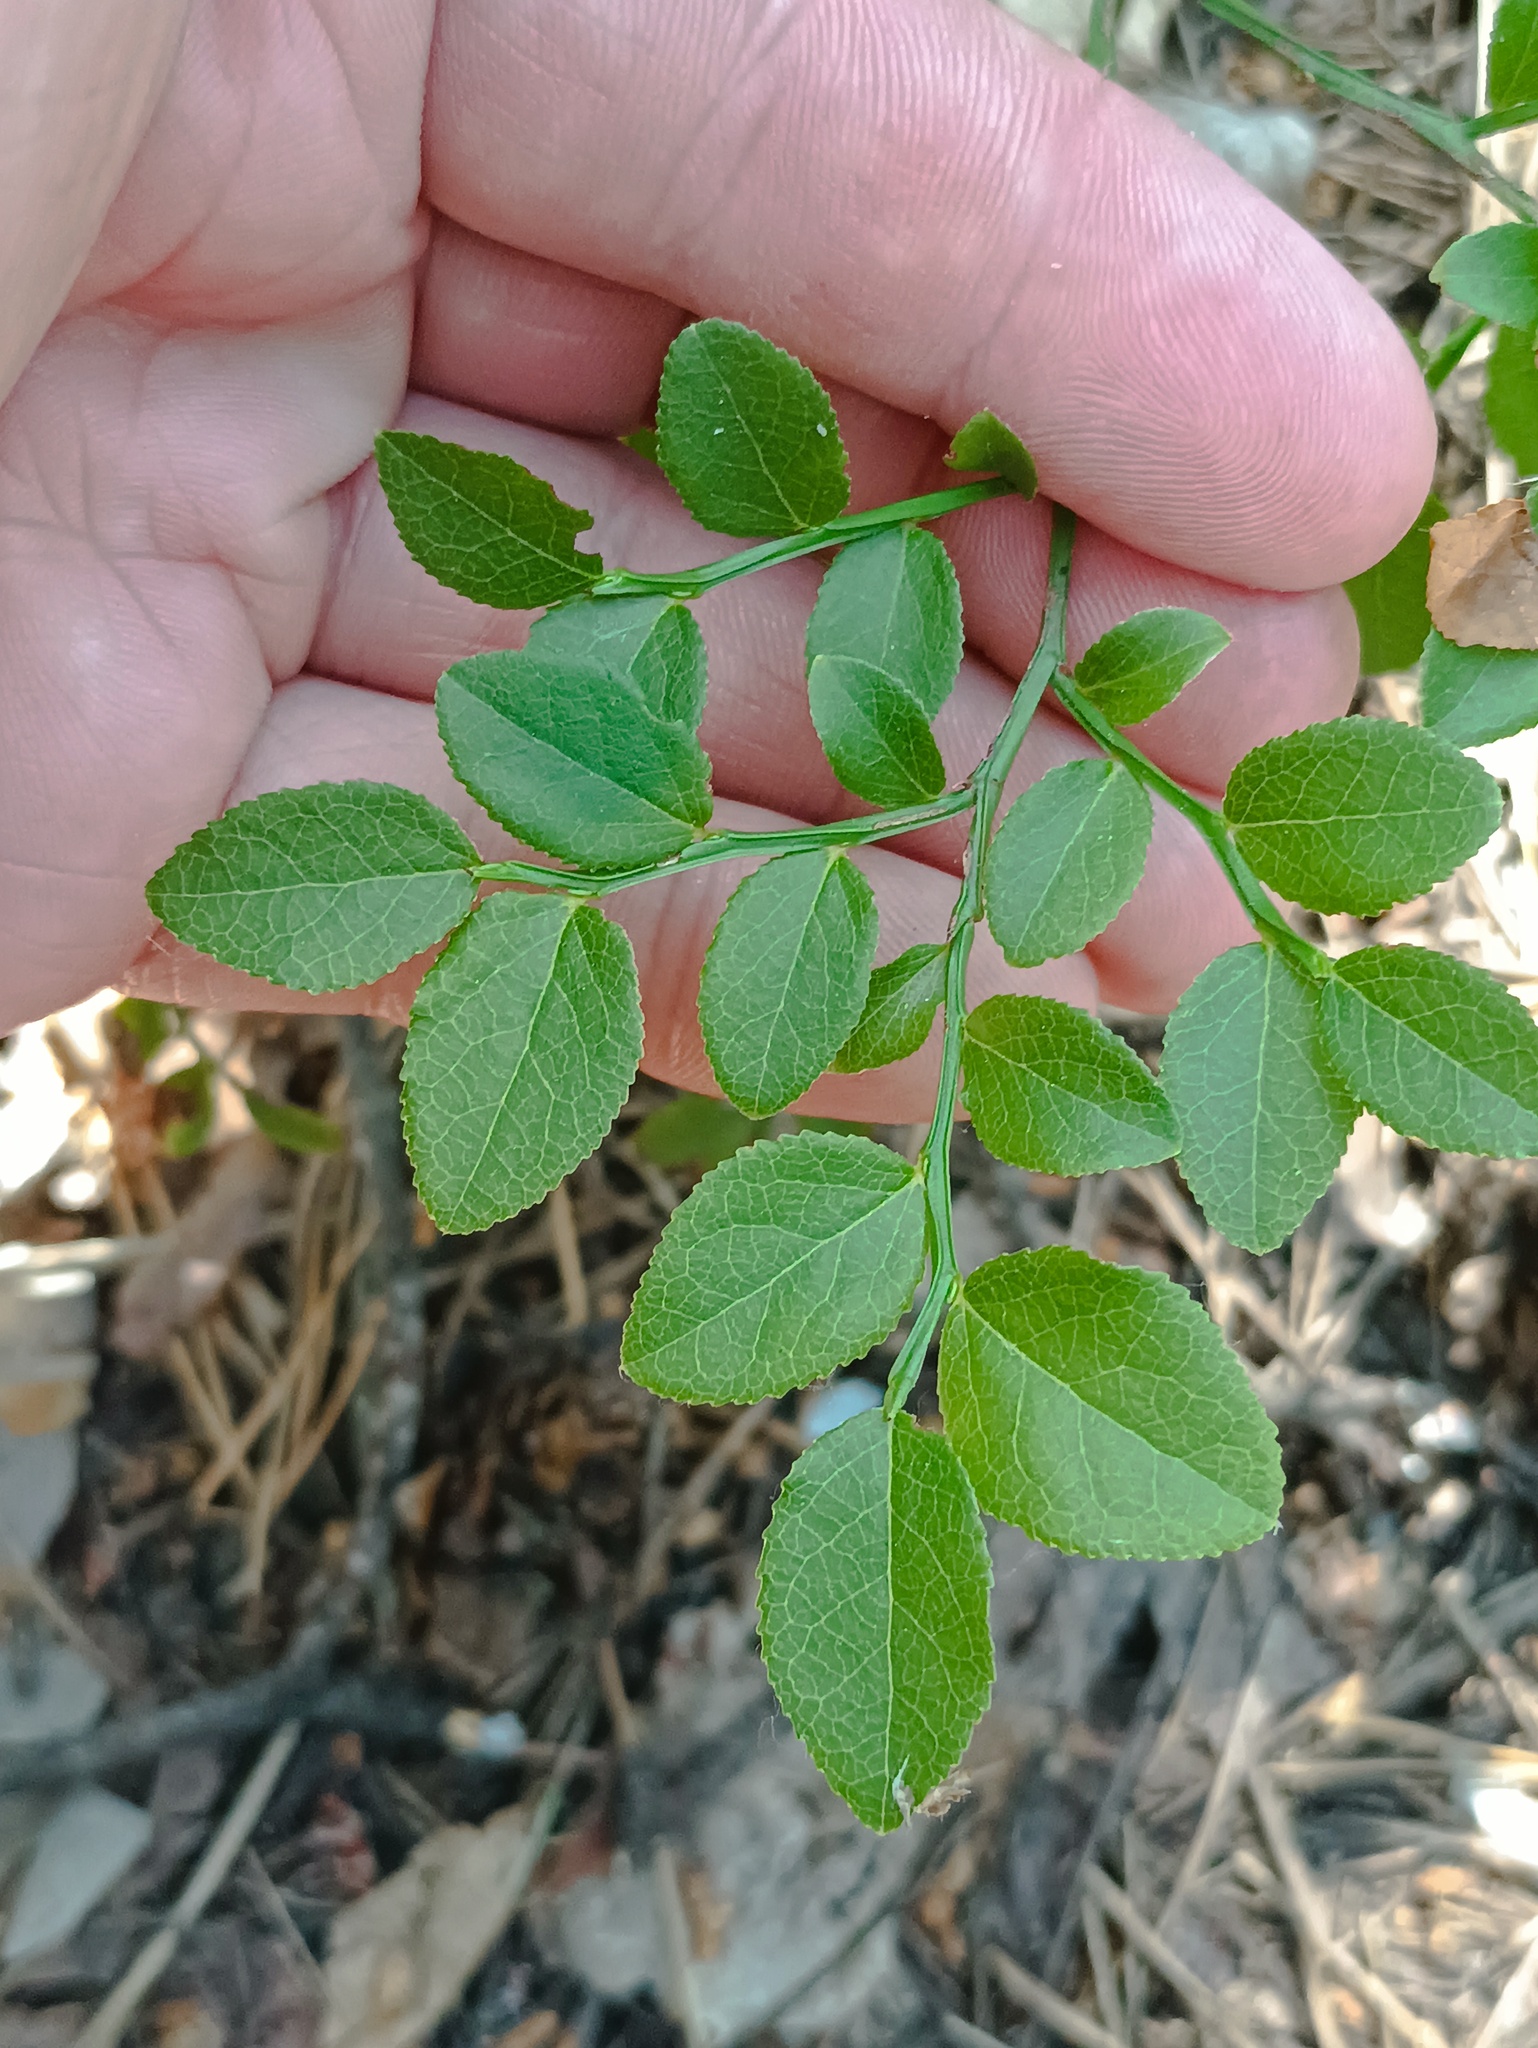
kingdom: Plantae
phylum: Tracheophyta
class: Magnoliopsida
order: Ericales
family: Ericaceae
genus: Vaccinium
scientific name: Vaccinium myrtillus
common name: Bilberry
